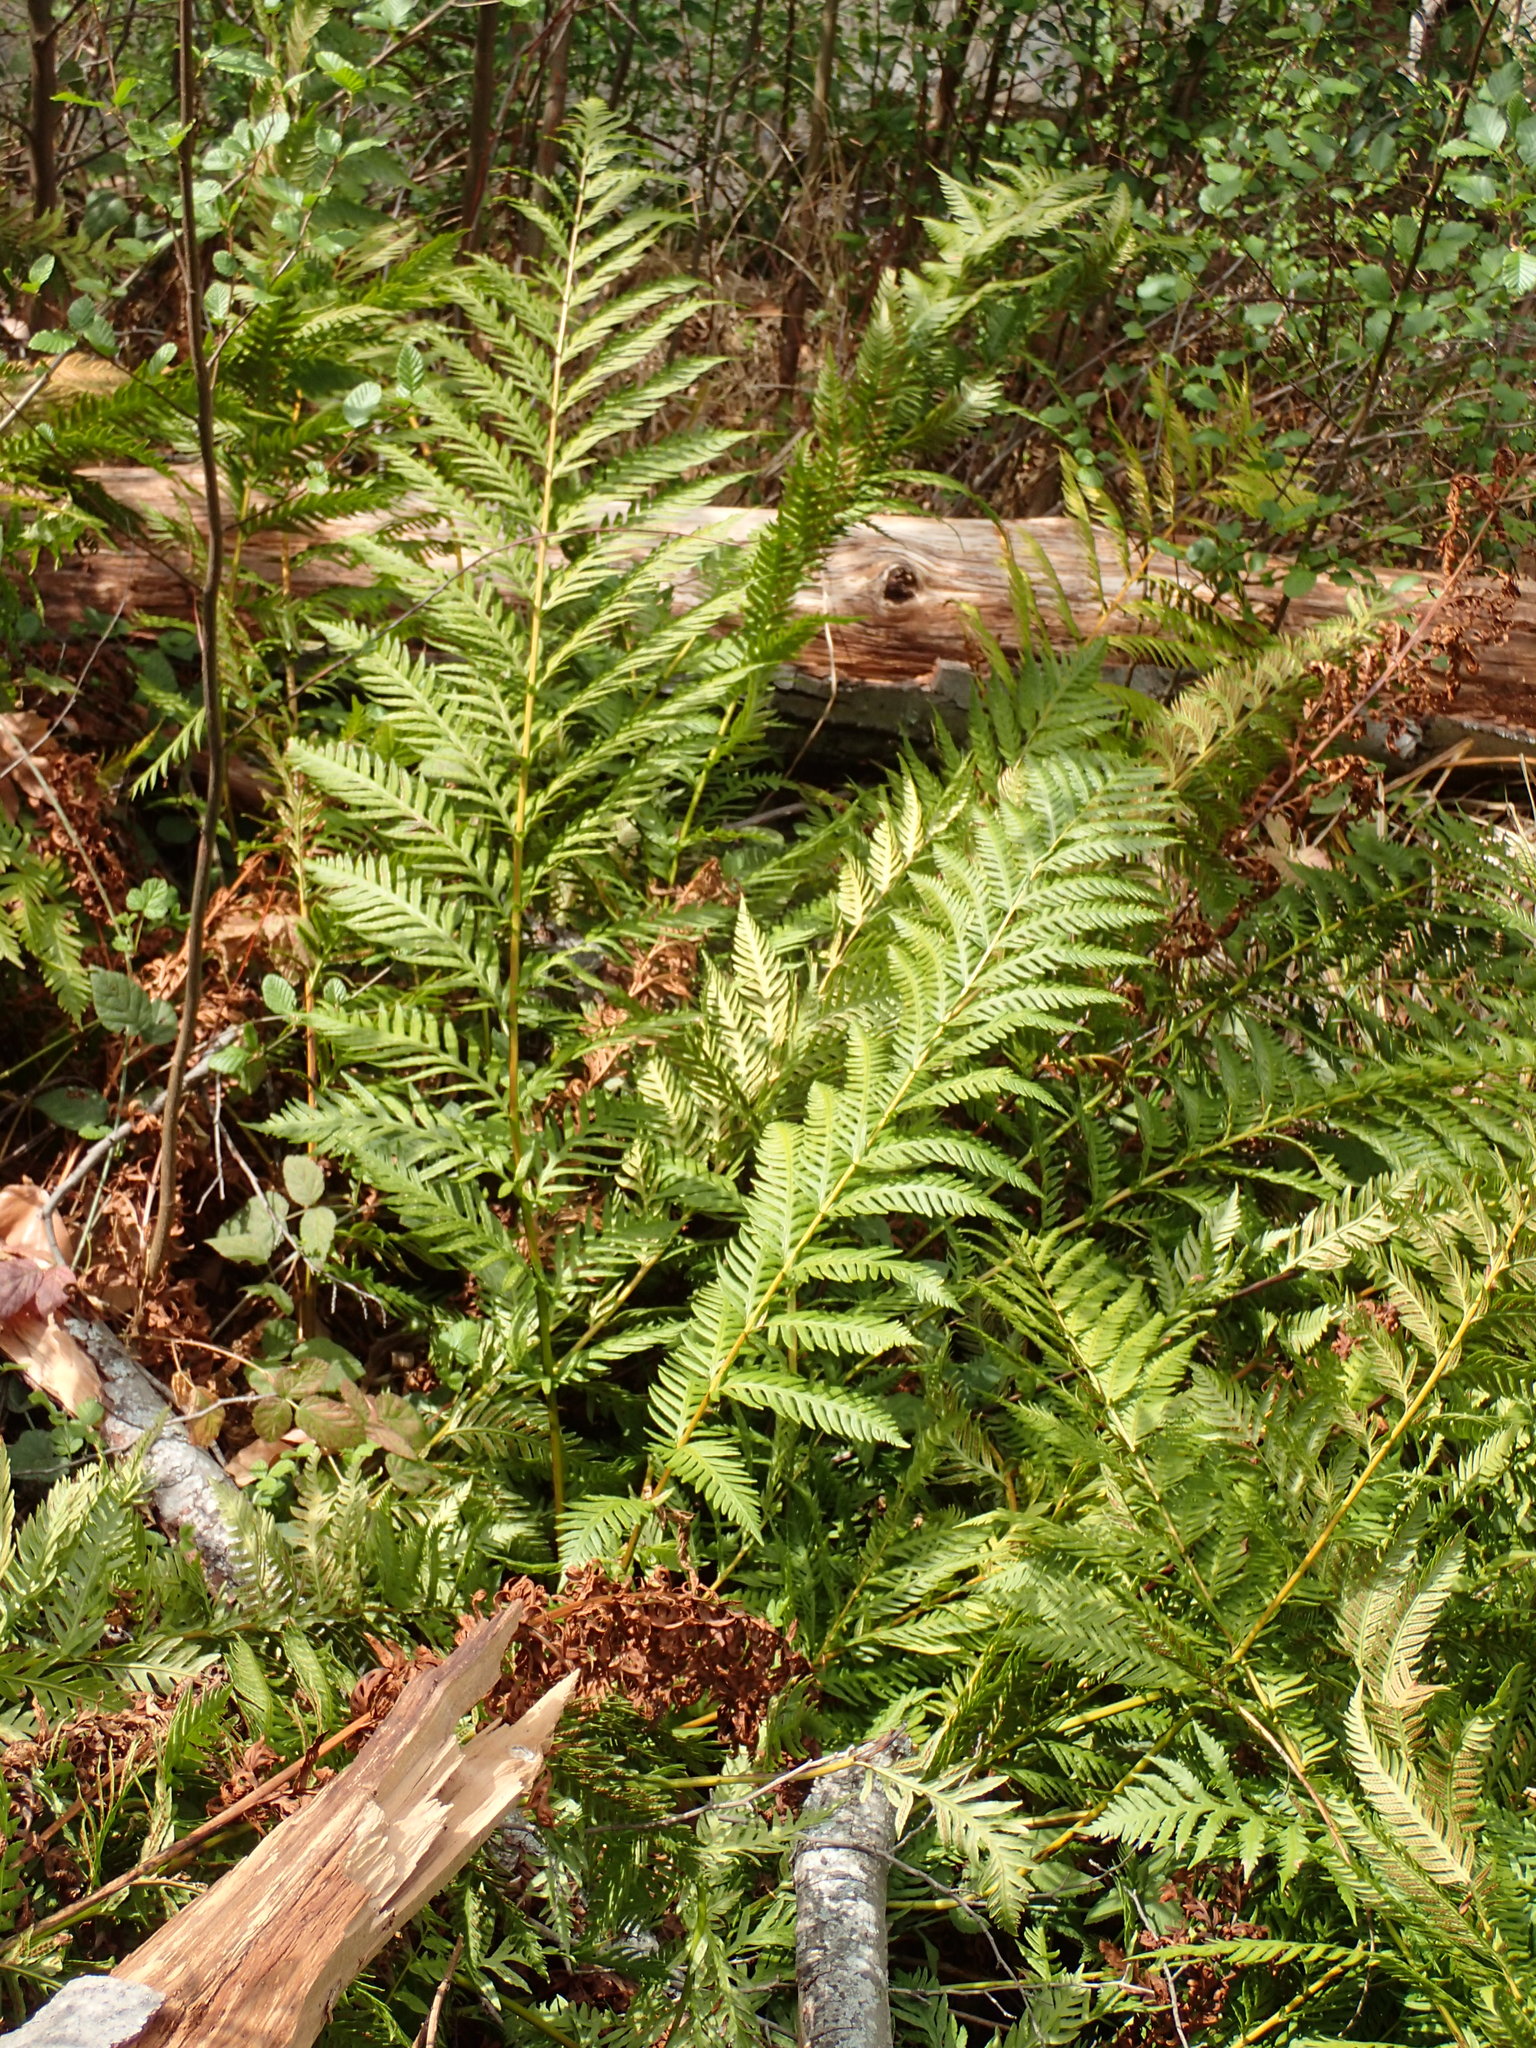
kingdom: Plantae
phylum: Tracheophyta
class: Polypodiopsida
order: Polypodiales
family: Blechnaceae
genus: Woodwardia
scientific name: Woodwardia fimbriata
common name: Giant chain fern
